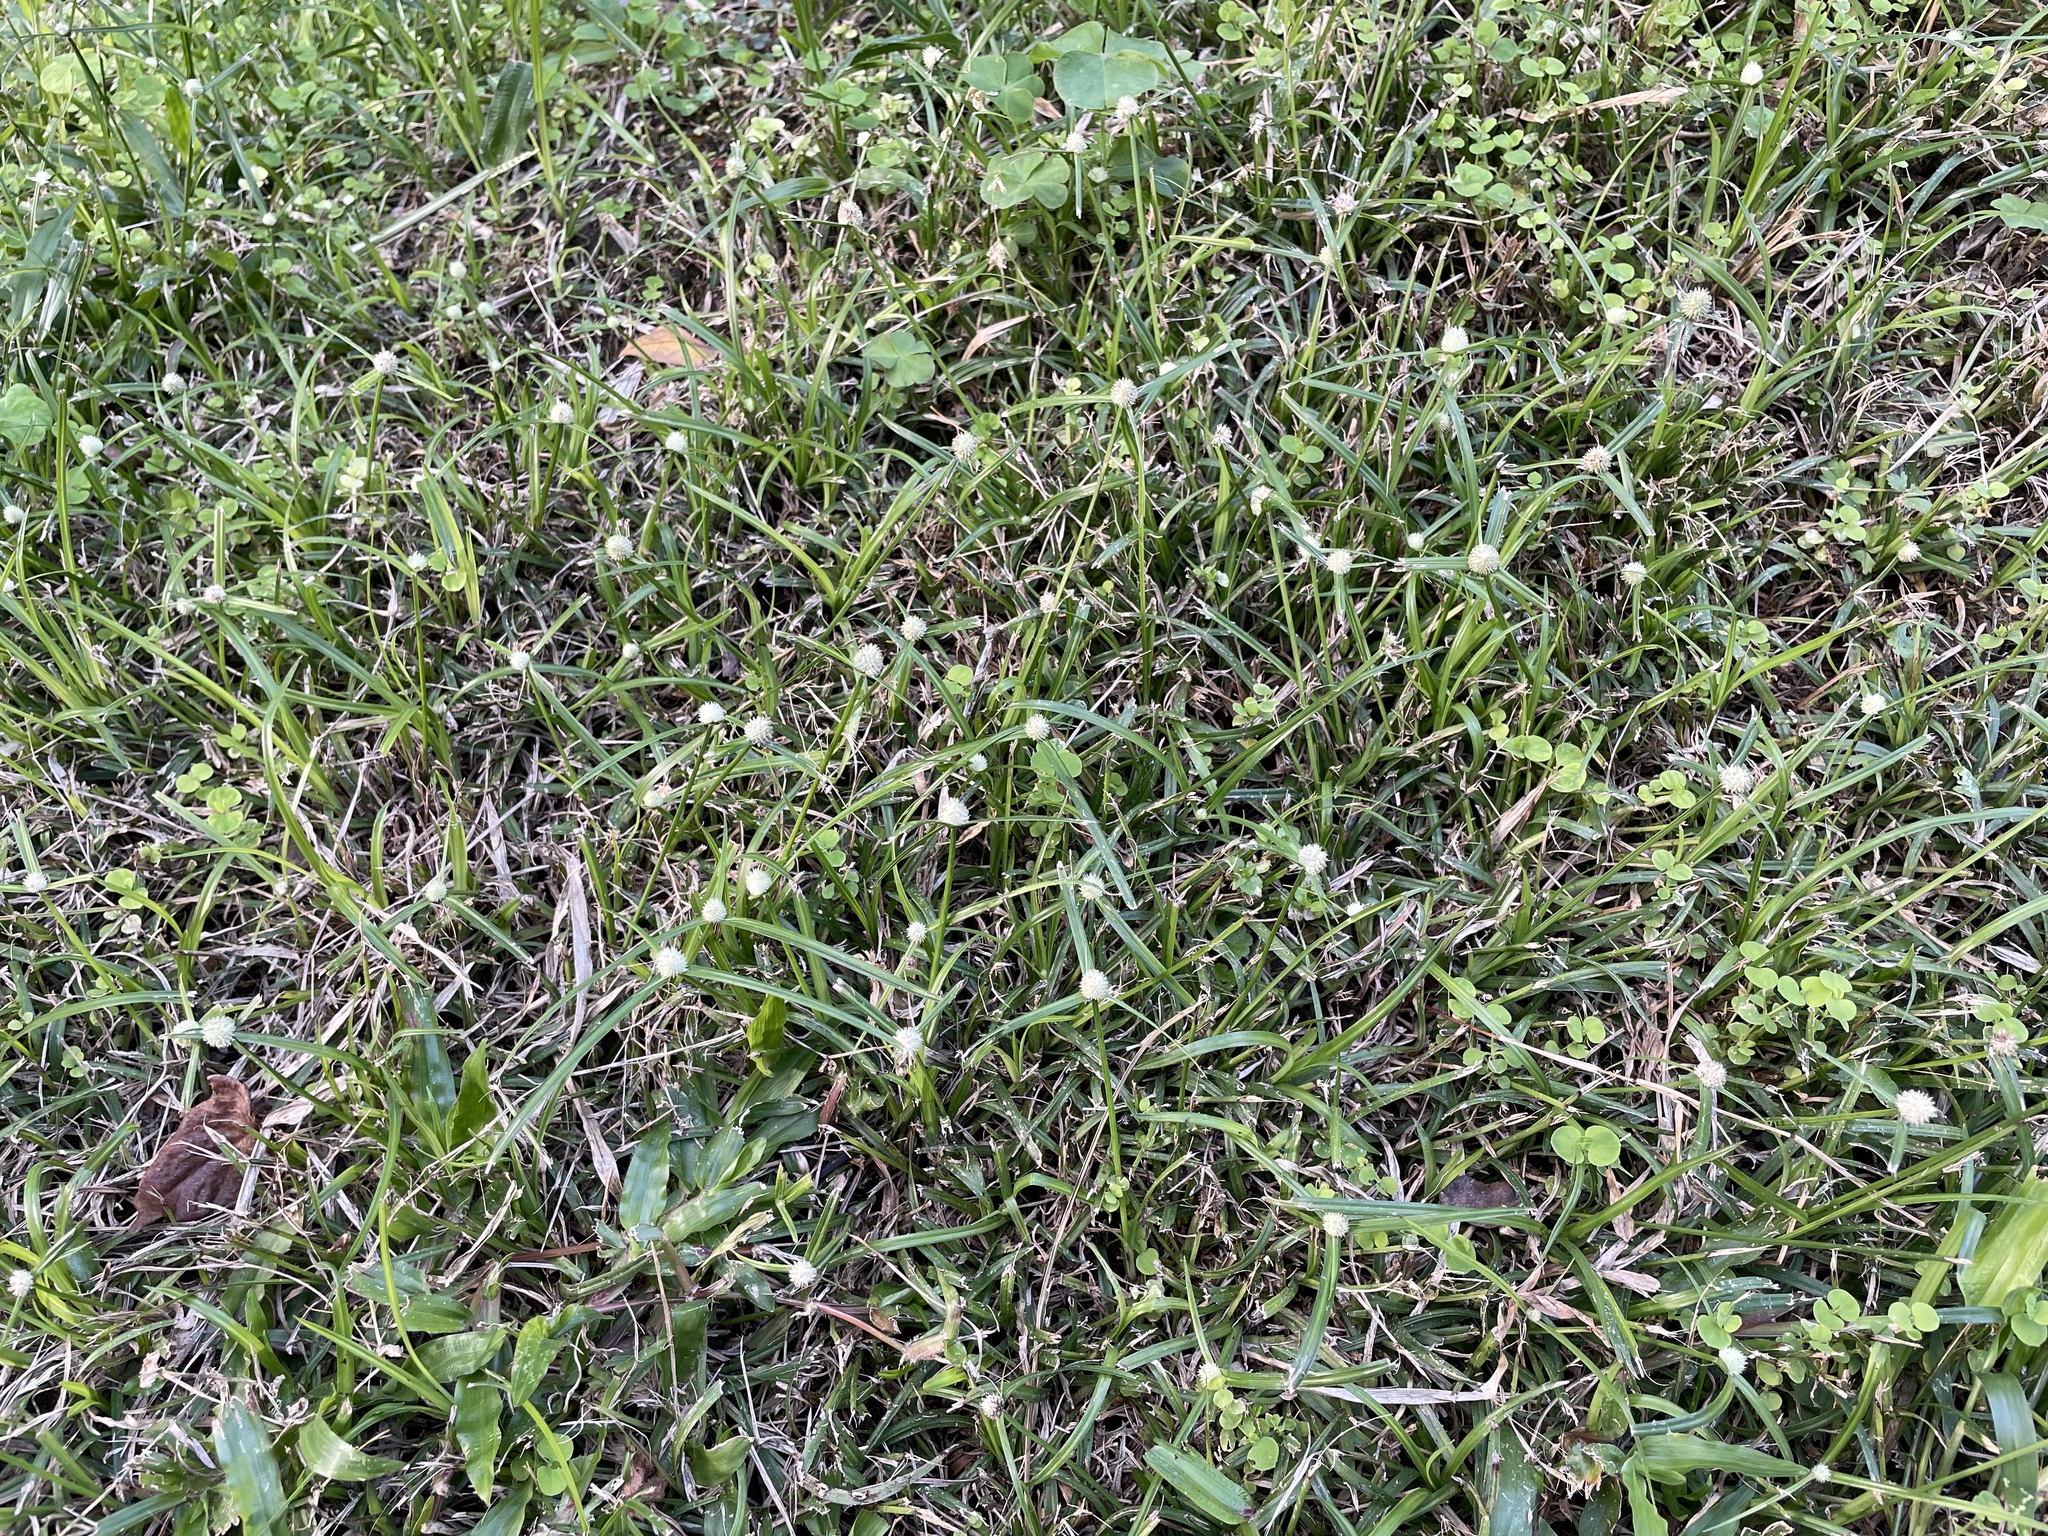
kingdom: Plantae
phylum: Tracheophyta
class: Liliopsida
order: Poales
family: Cyperaceae
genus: Cyperus
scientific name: Cyperus mindorensis
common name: Flatsedge
